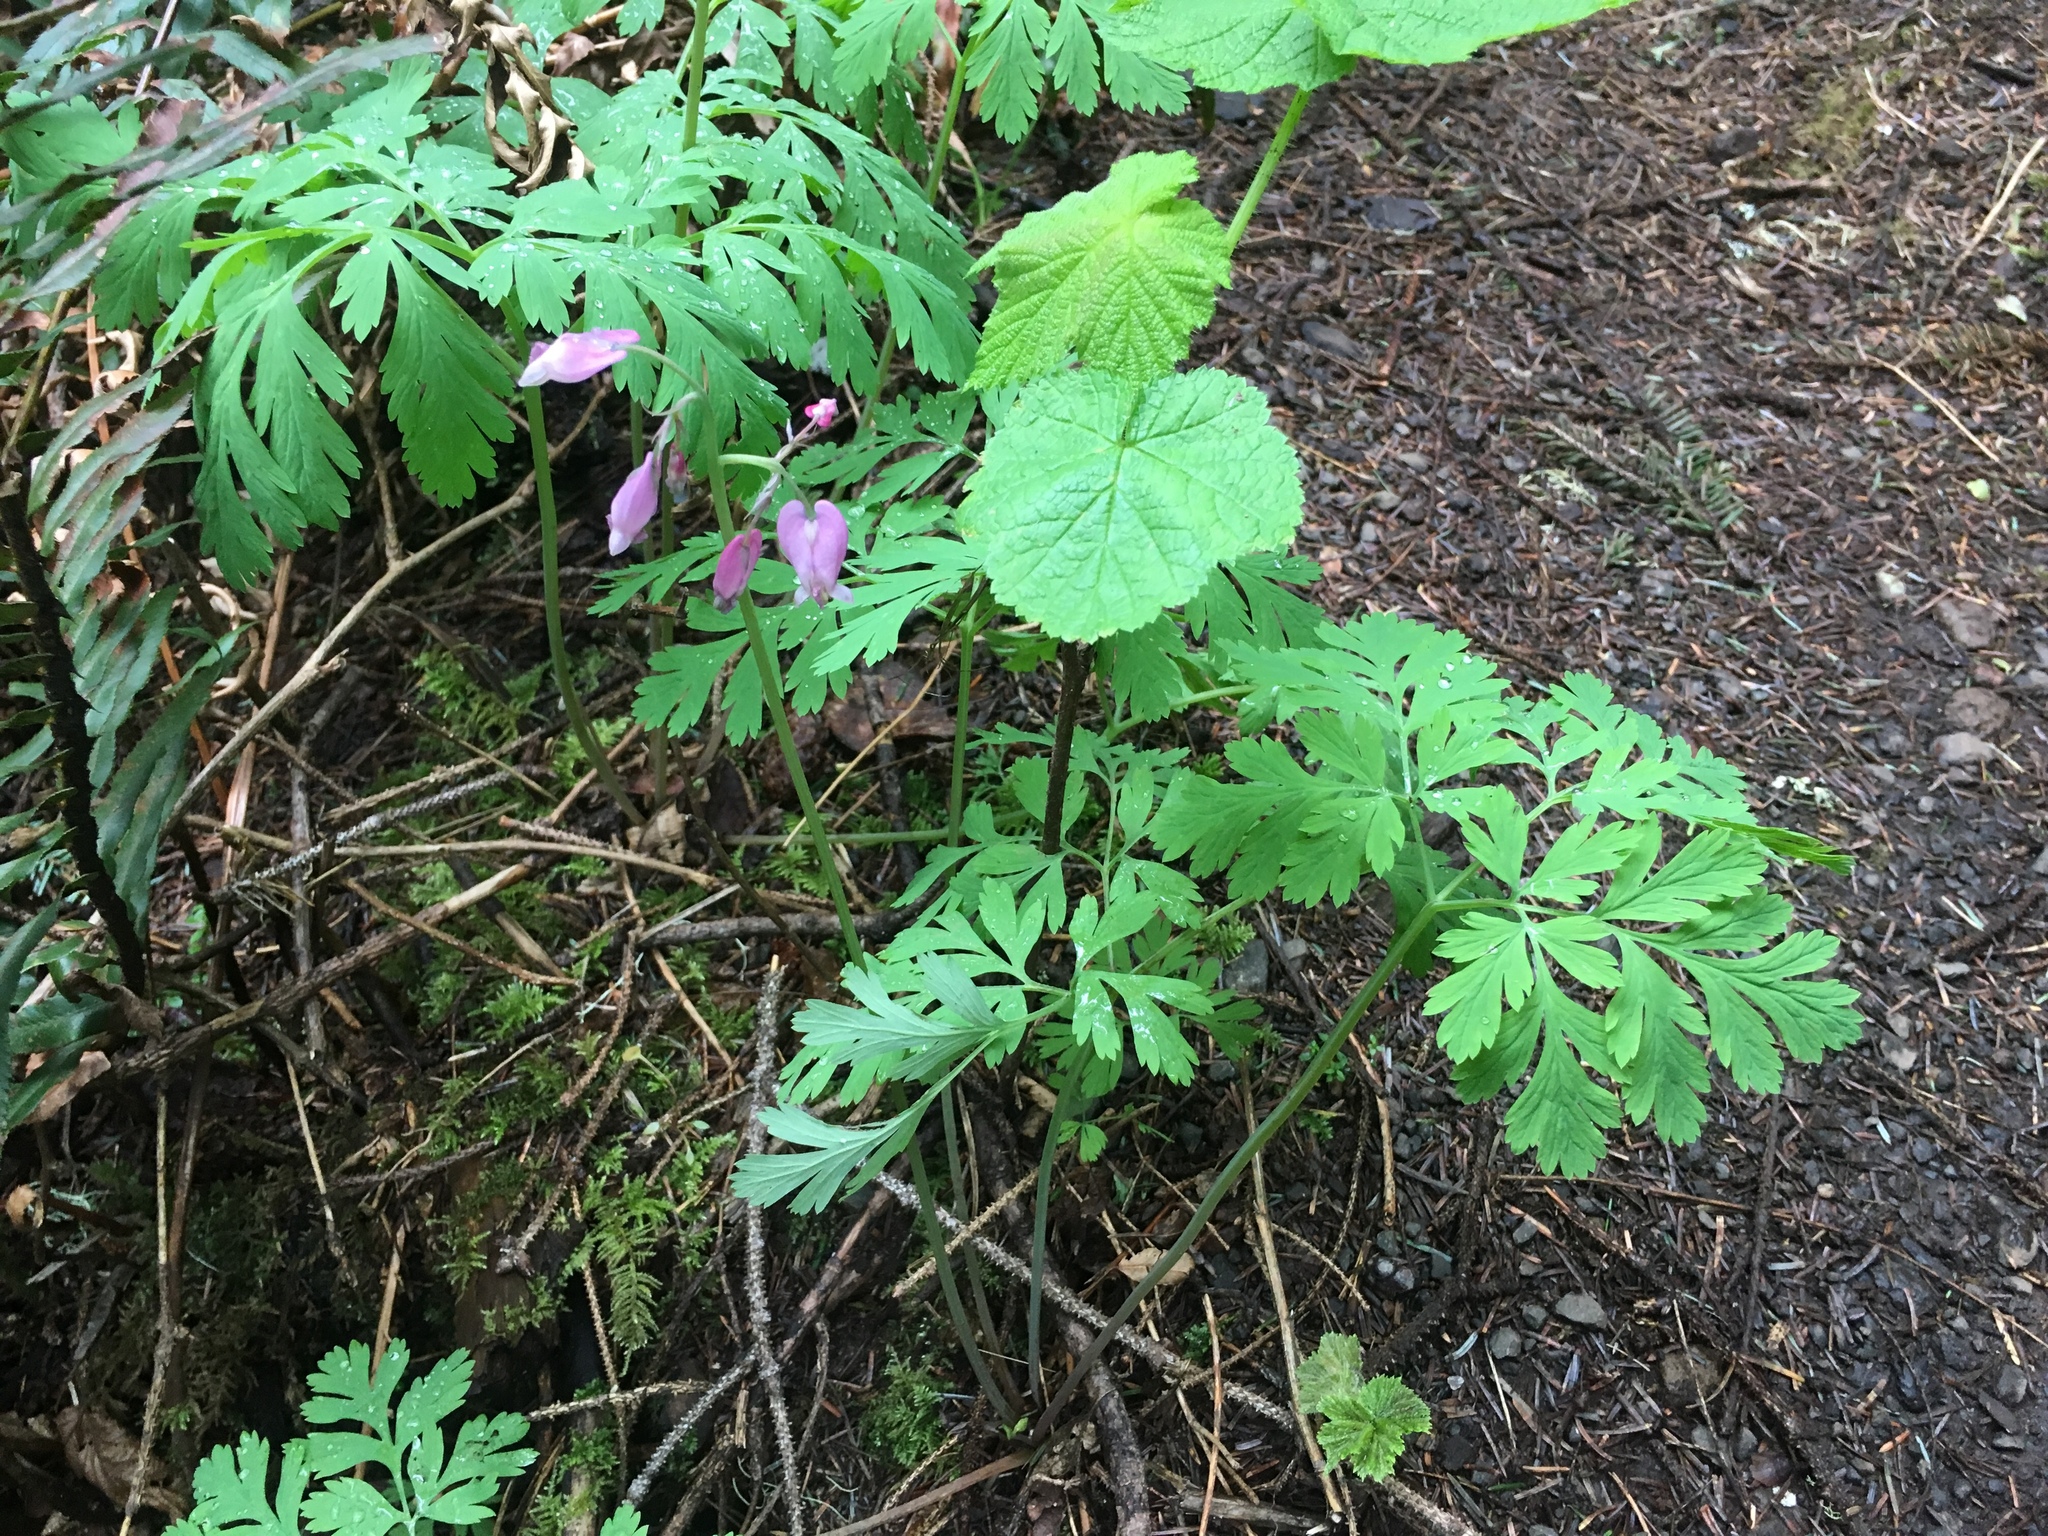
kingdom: Plantae
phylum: Tracheophyta
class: Magnoliopsida
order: Ranunculales
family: Papaveraceae
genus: Dicentra
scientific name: Dicentra formosa
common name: Bleeding-heart
